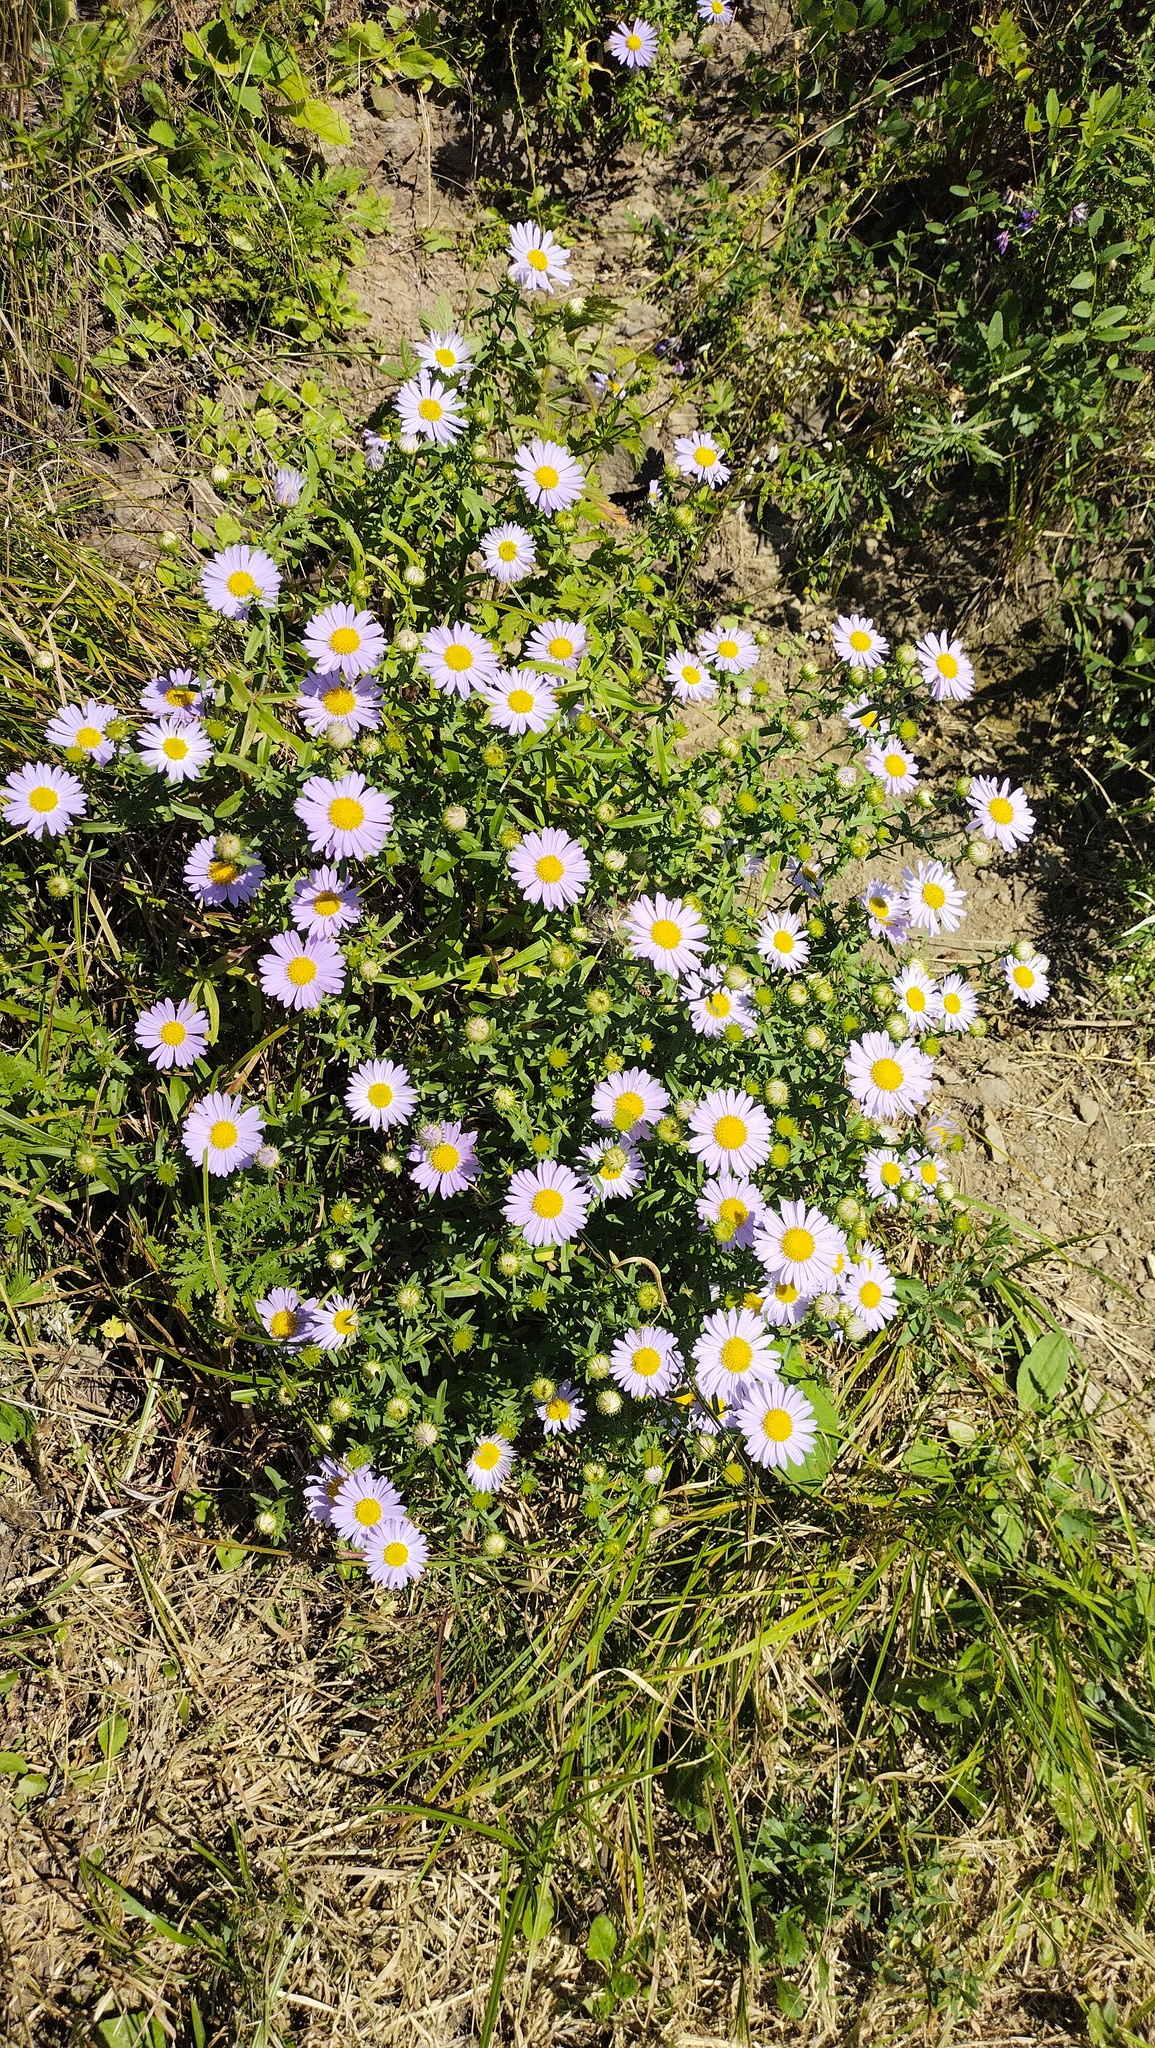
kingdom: Plantae
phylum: Tracheophyta
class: Magnoliopsida
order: Asterales
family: Asteraceae
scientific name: Asteraceae
